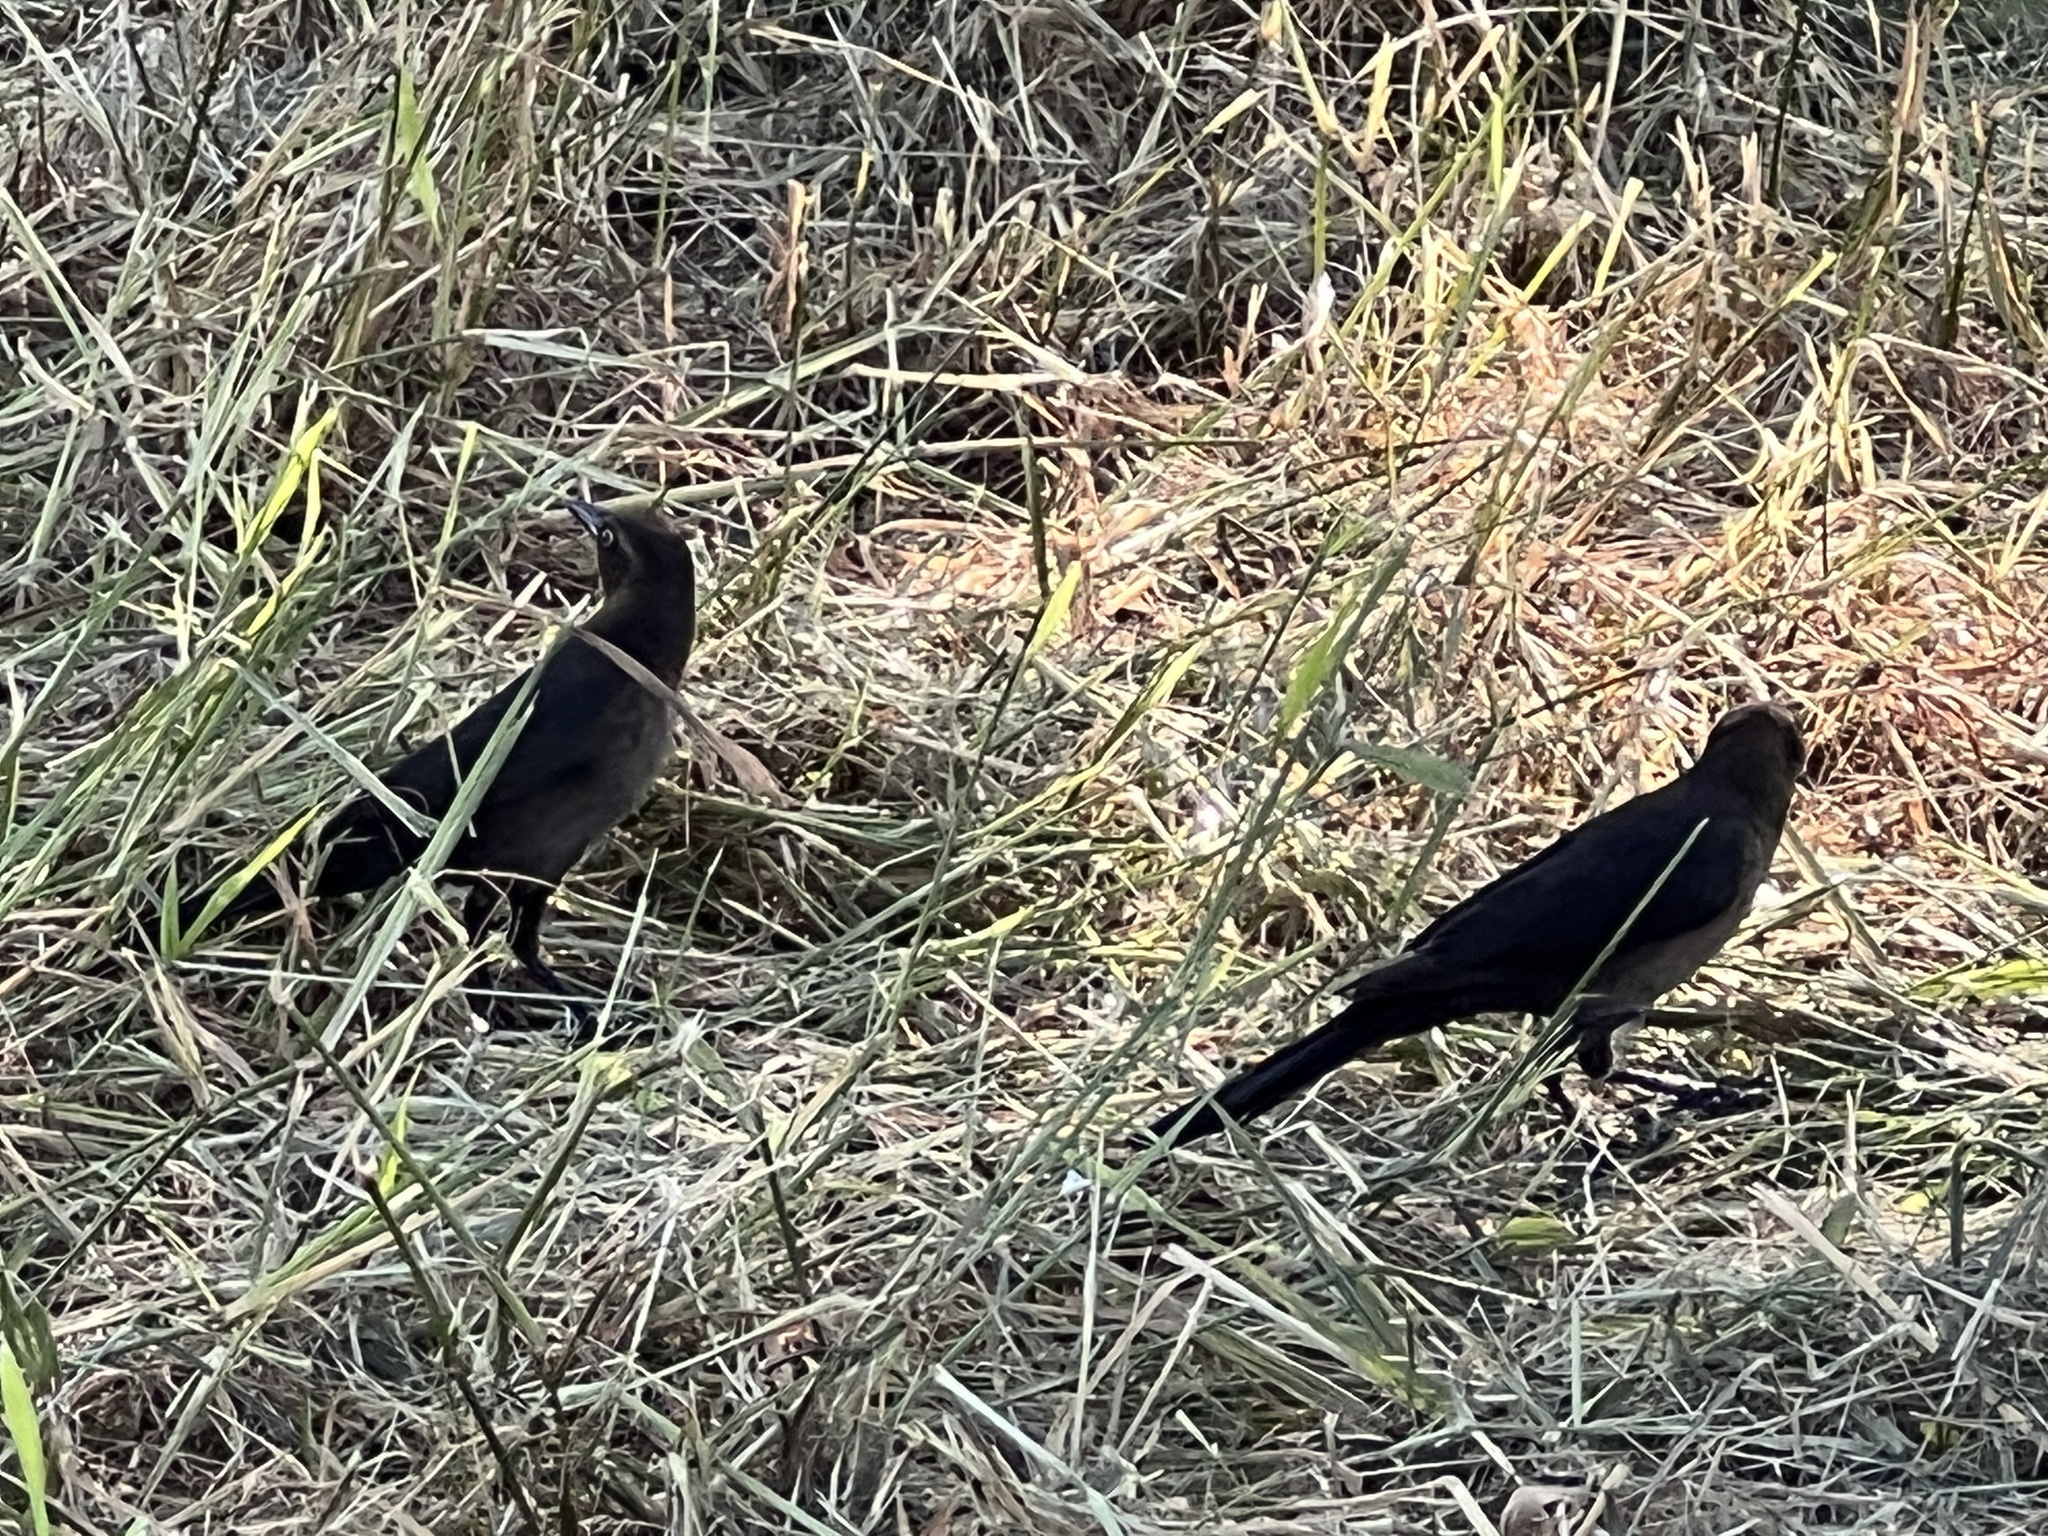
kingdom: Animalia
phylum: Chordata
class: Aves
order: Passeriformes
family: Icteridae
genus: Quiscalus
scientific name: Quiscalus mexicanus
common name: Great-tailed grackle
